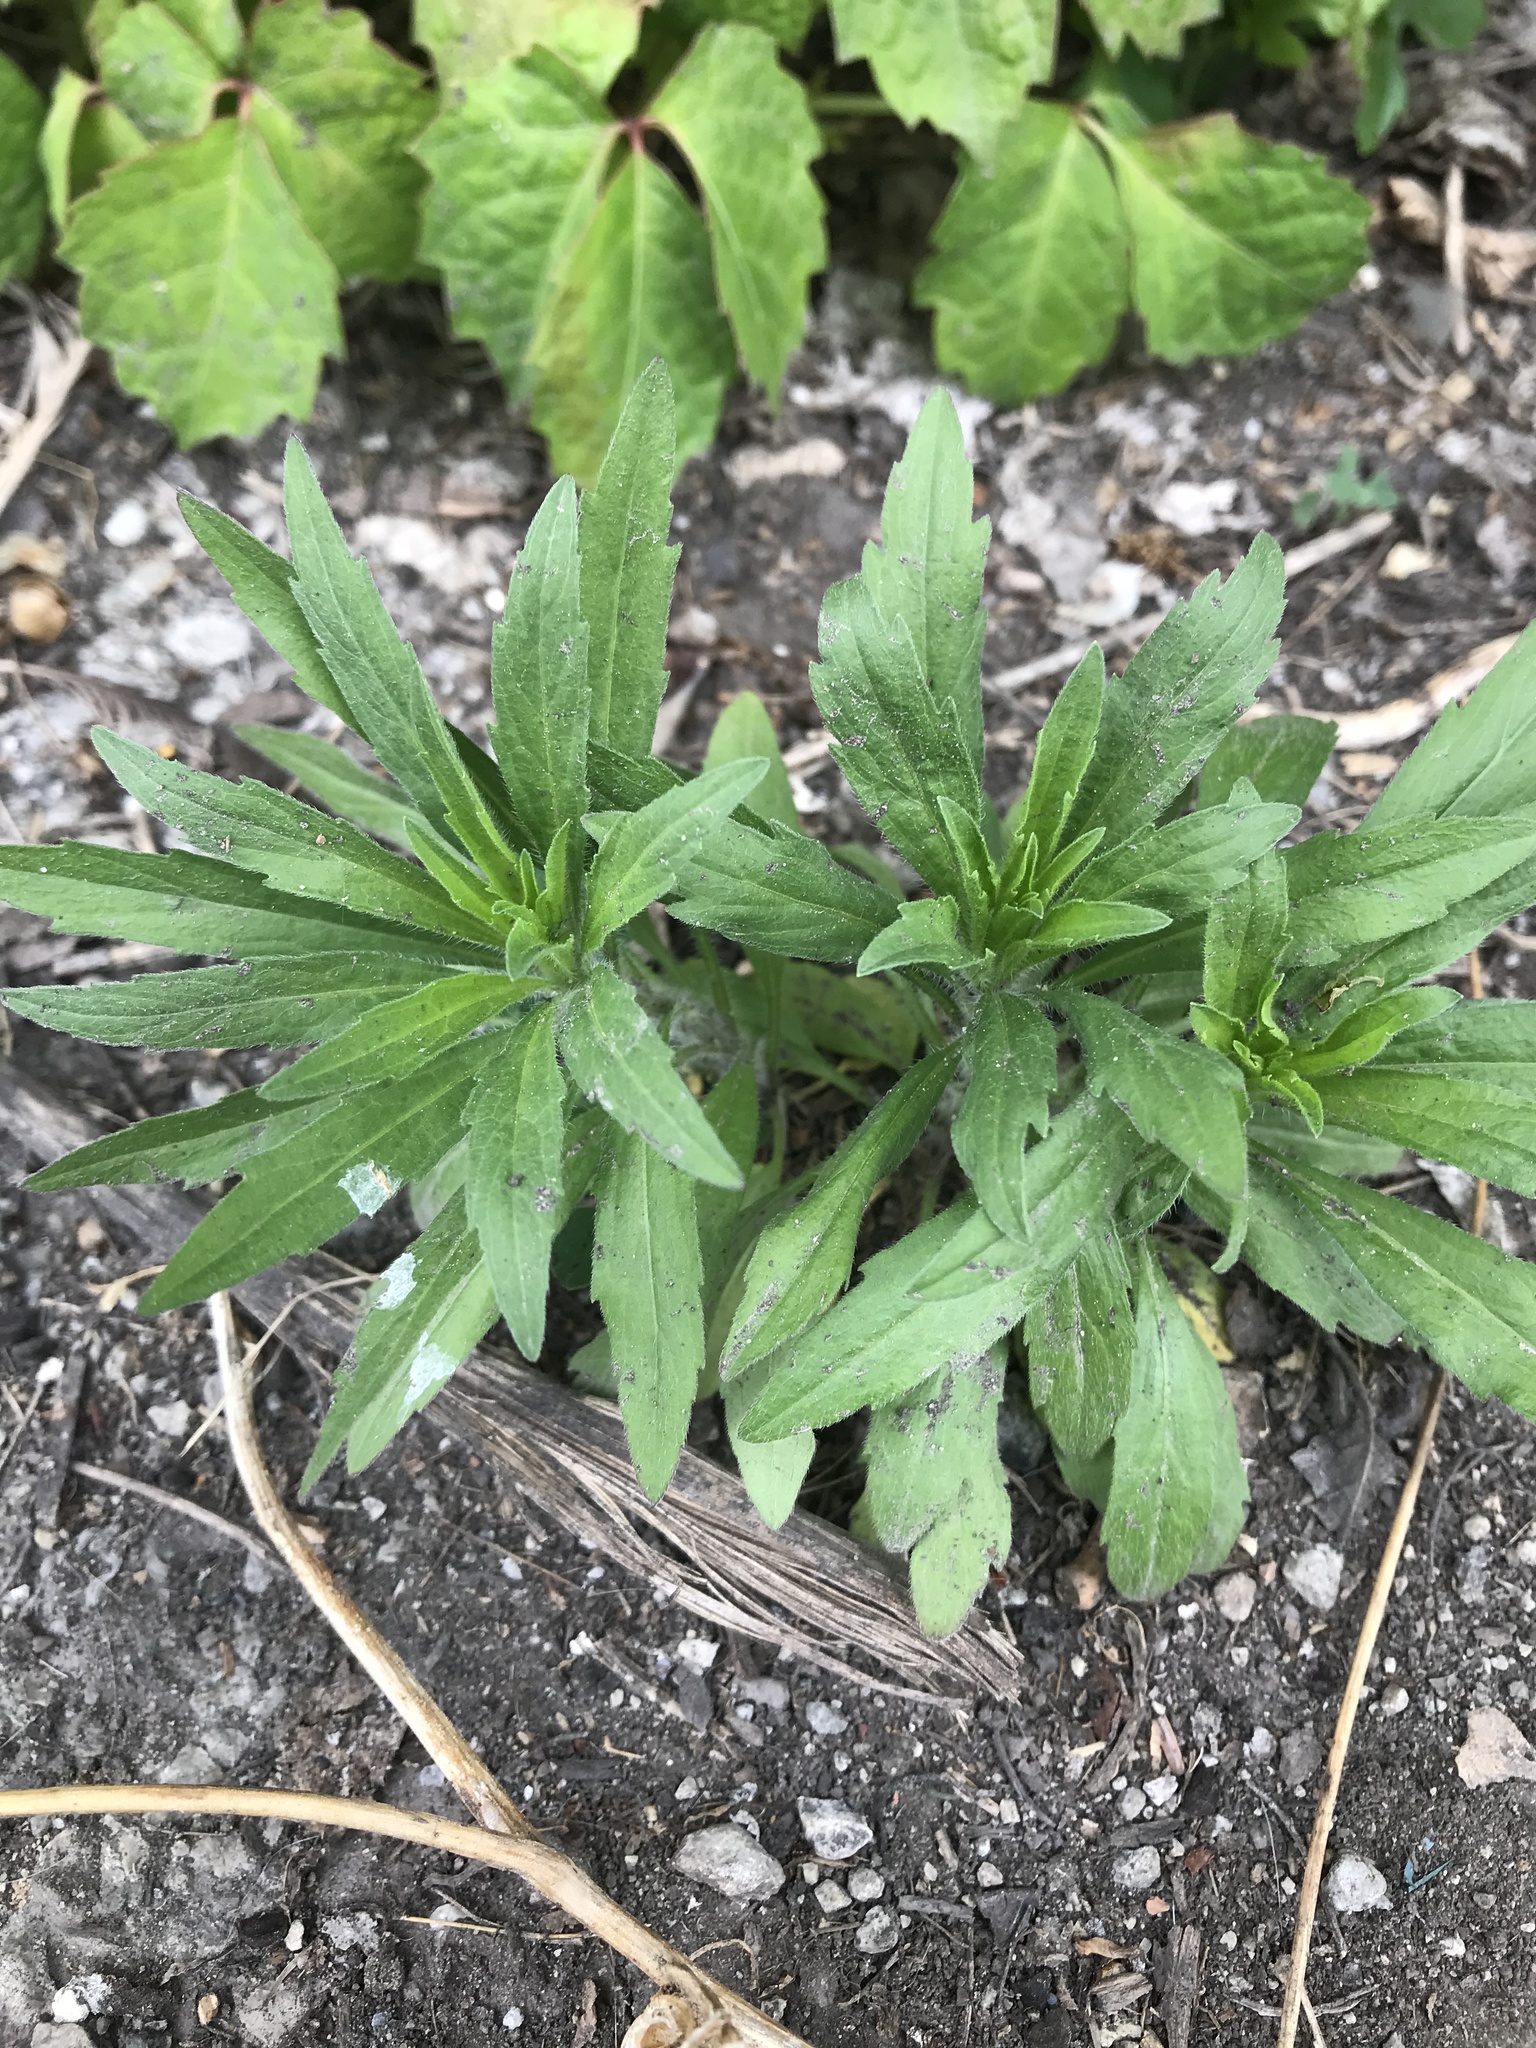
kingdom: Plantae
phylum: Tracheophyta
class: Magnoliopsida
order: Asterales
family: Asteraceae
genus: Erigeron
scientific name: Erigeron canadensis
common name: Canadian fleabane
